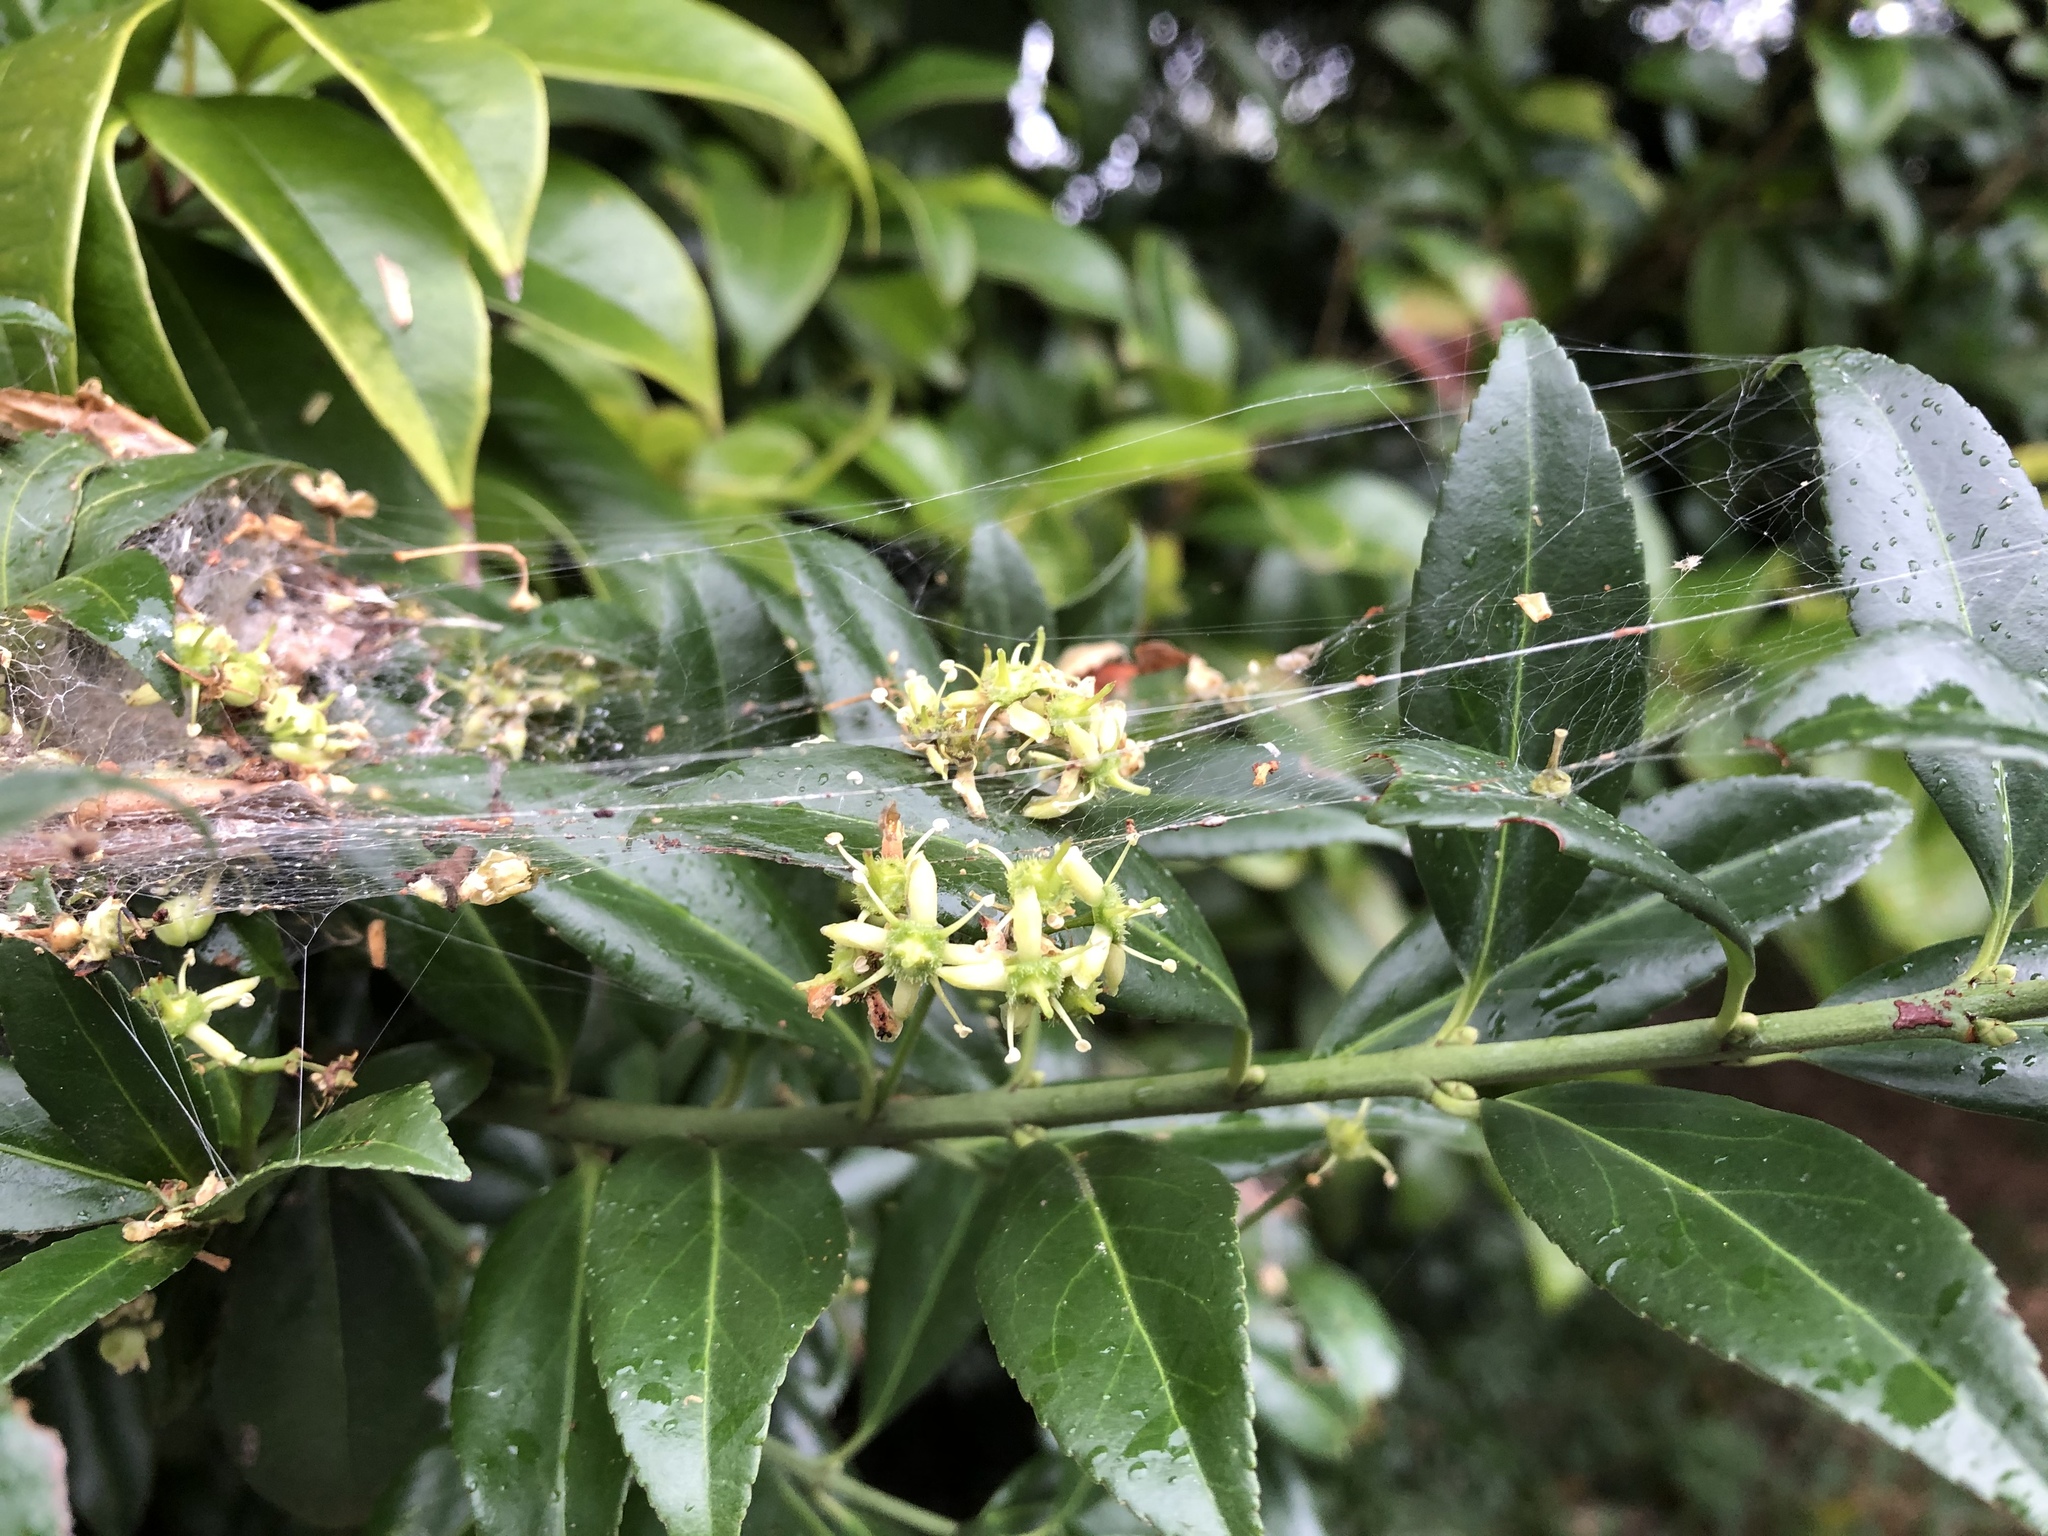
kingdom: Plantae
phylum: Tracheophyta
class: Magnoliopsida
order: Celastrales
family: Celastraceae
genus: Euonymus
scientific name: Euonymus spraguei
